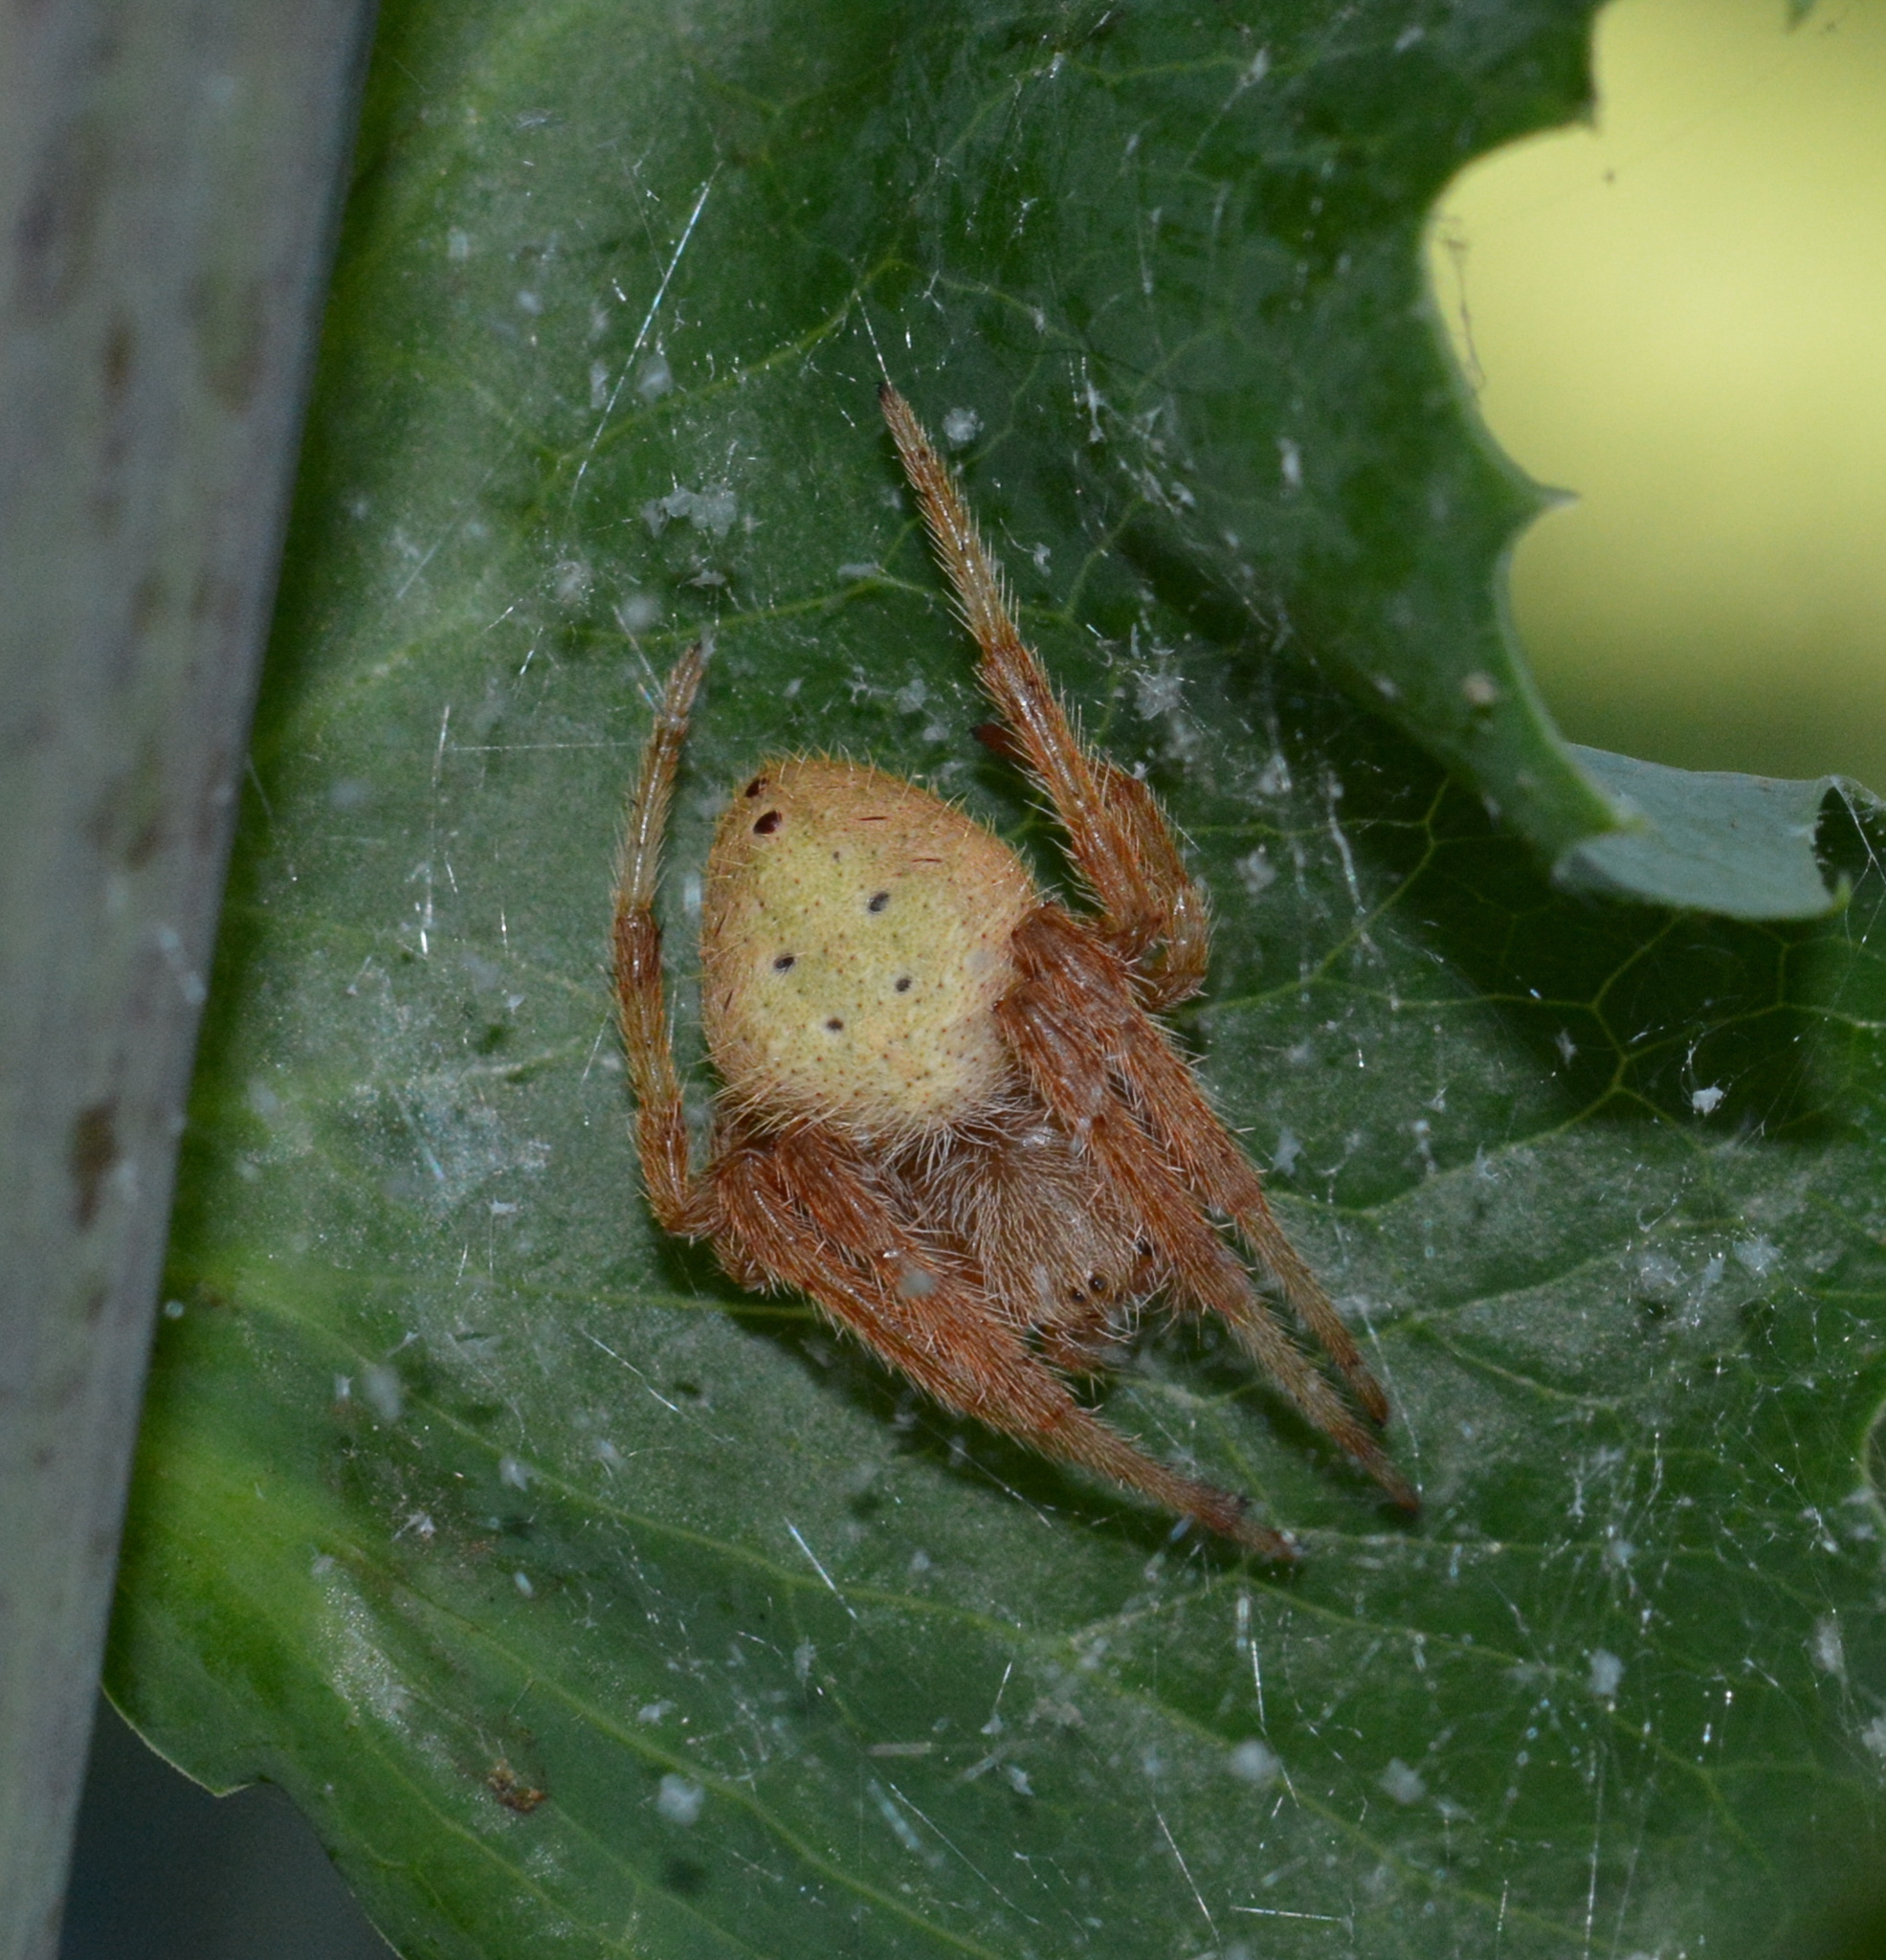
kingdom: Animalia
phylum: Arthropoda
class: Arachnida
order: Araneae
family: Araneidae
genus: Eriophora
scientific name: Eriophora ravilla
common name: Orb weavers
